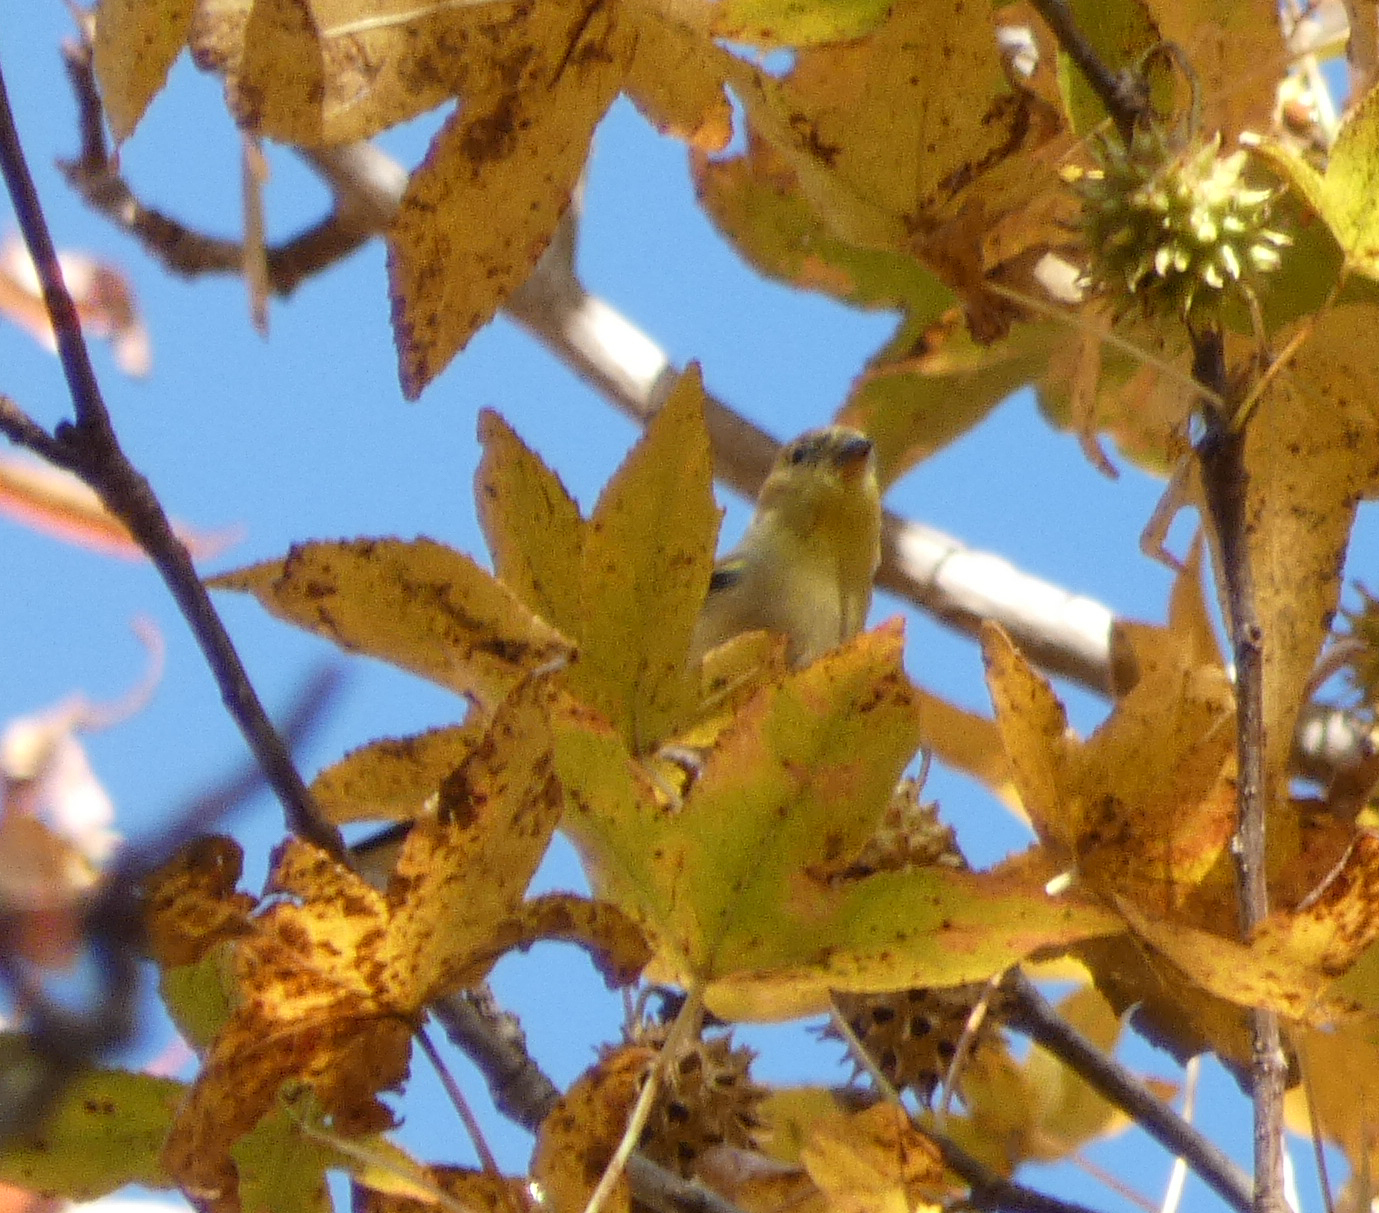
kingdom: Animalia
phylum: Chordata
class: Aves
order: Passeriformes
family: Fringillidae
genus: Spinus
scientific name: Spinus tristis
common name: American goldfinch
